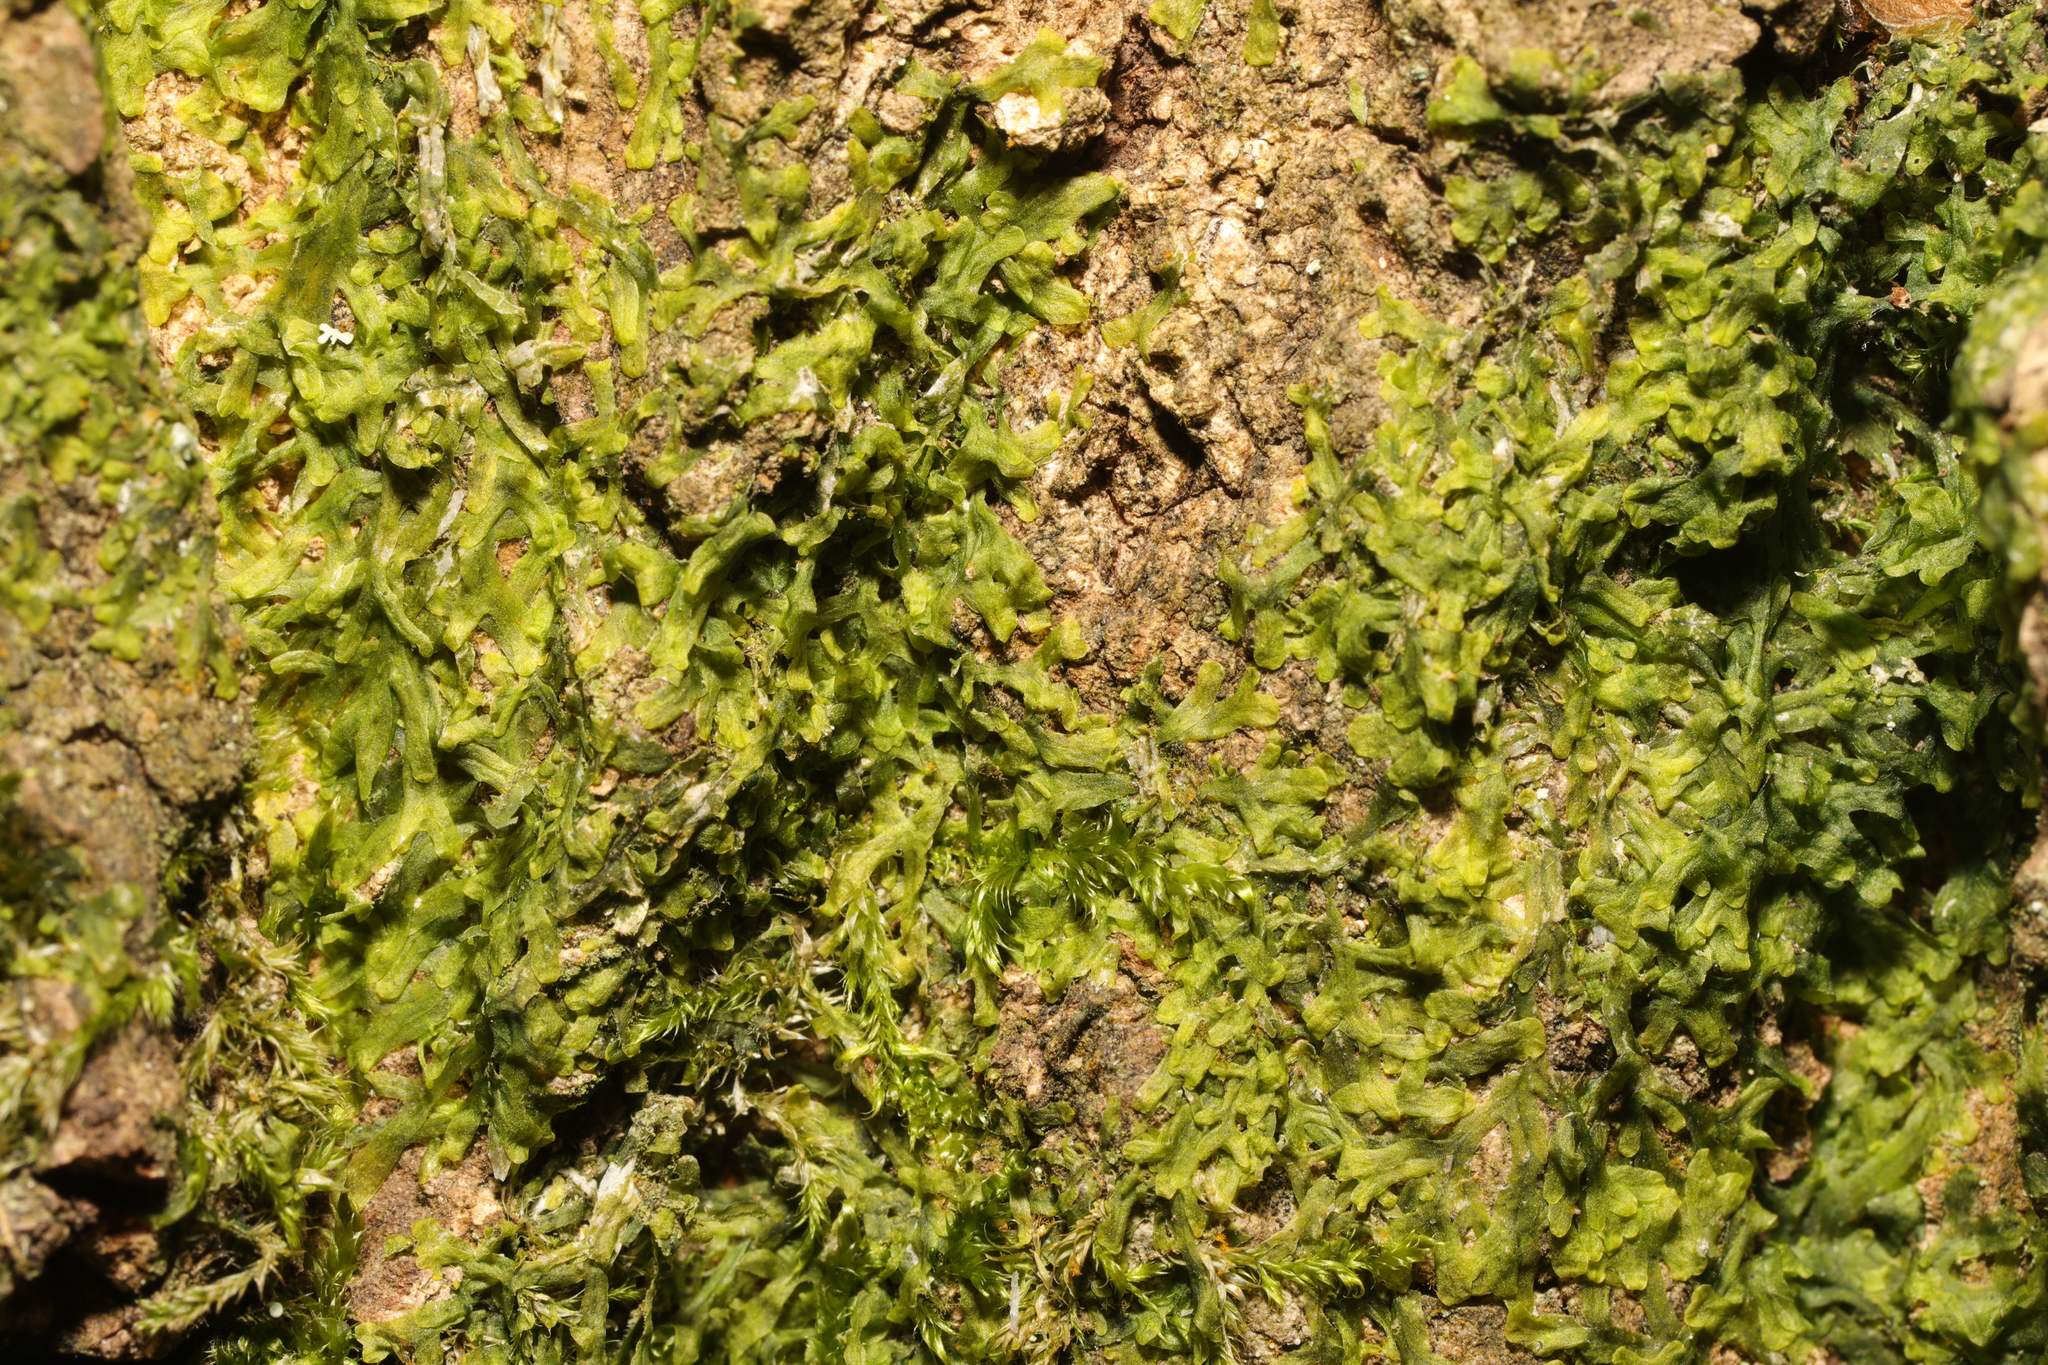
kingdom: Plantae
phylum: Marchantiophyta
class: Jungermanniopsida
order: Metzgeriales
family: Metzgeriaceae
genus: Metzgeria
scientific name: Metzgeria furcata
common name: Forked veilwort
